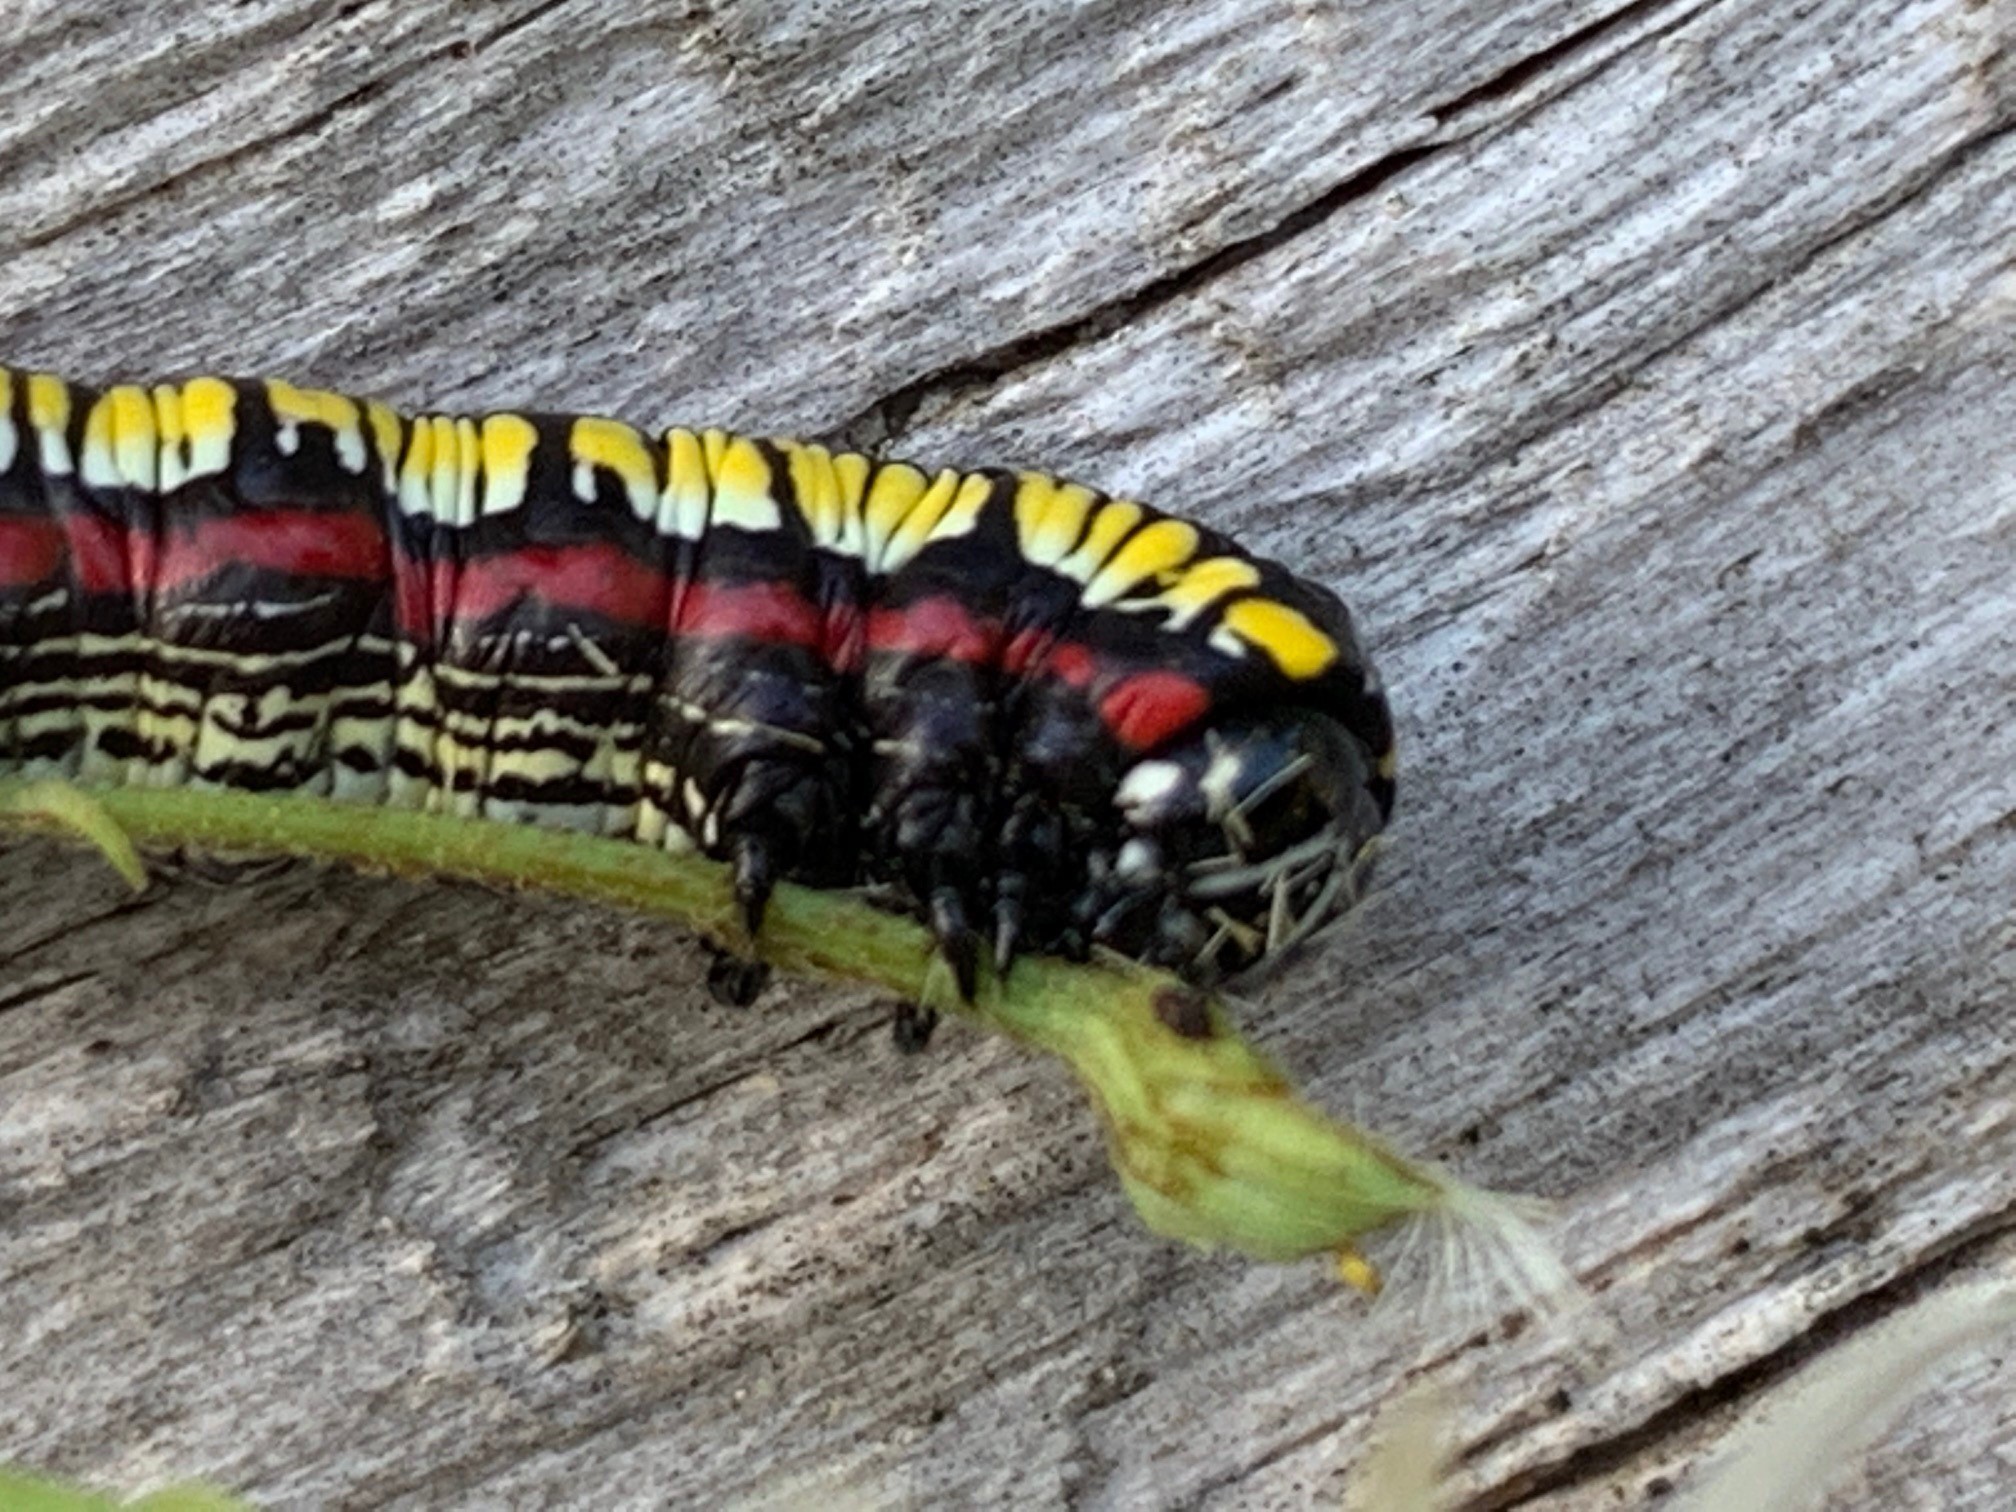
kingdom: Animalia
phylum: Arthropoda
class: Insecta
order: Lepidoptera
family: Noctuidae
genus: Cucullia
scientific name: Cucullia convexipennis
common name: Brown-hooded owlet
